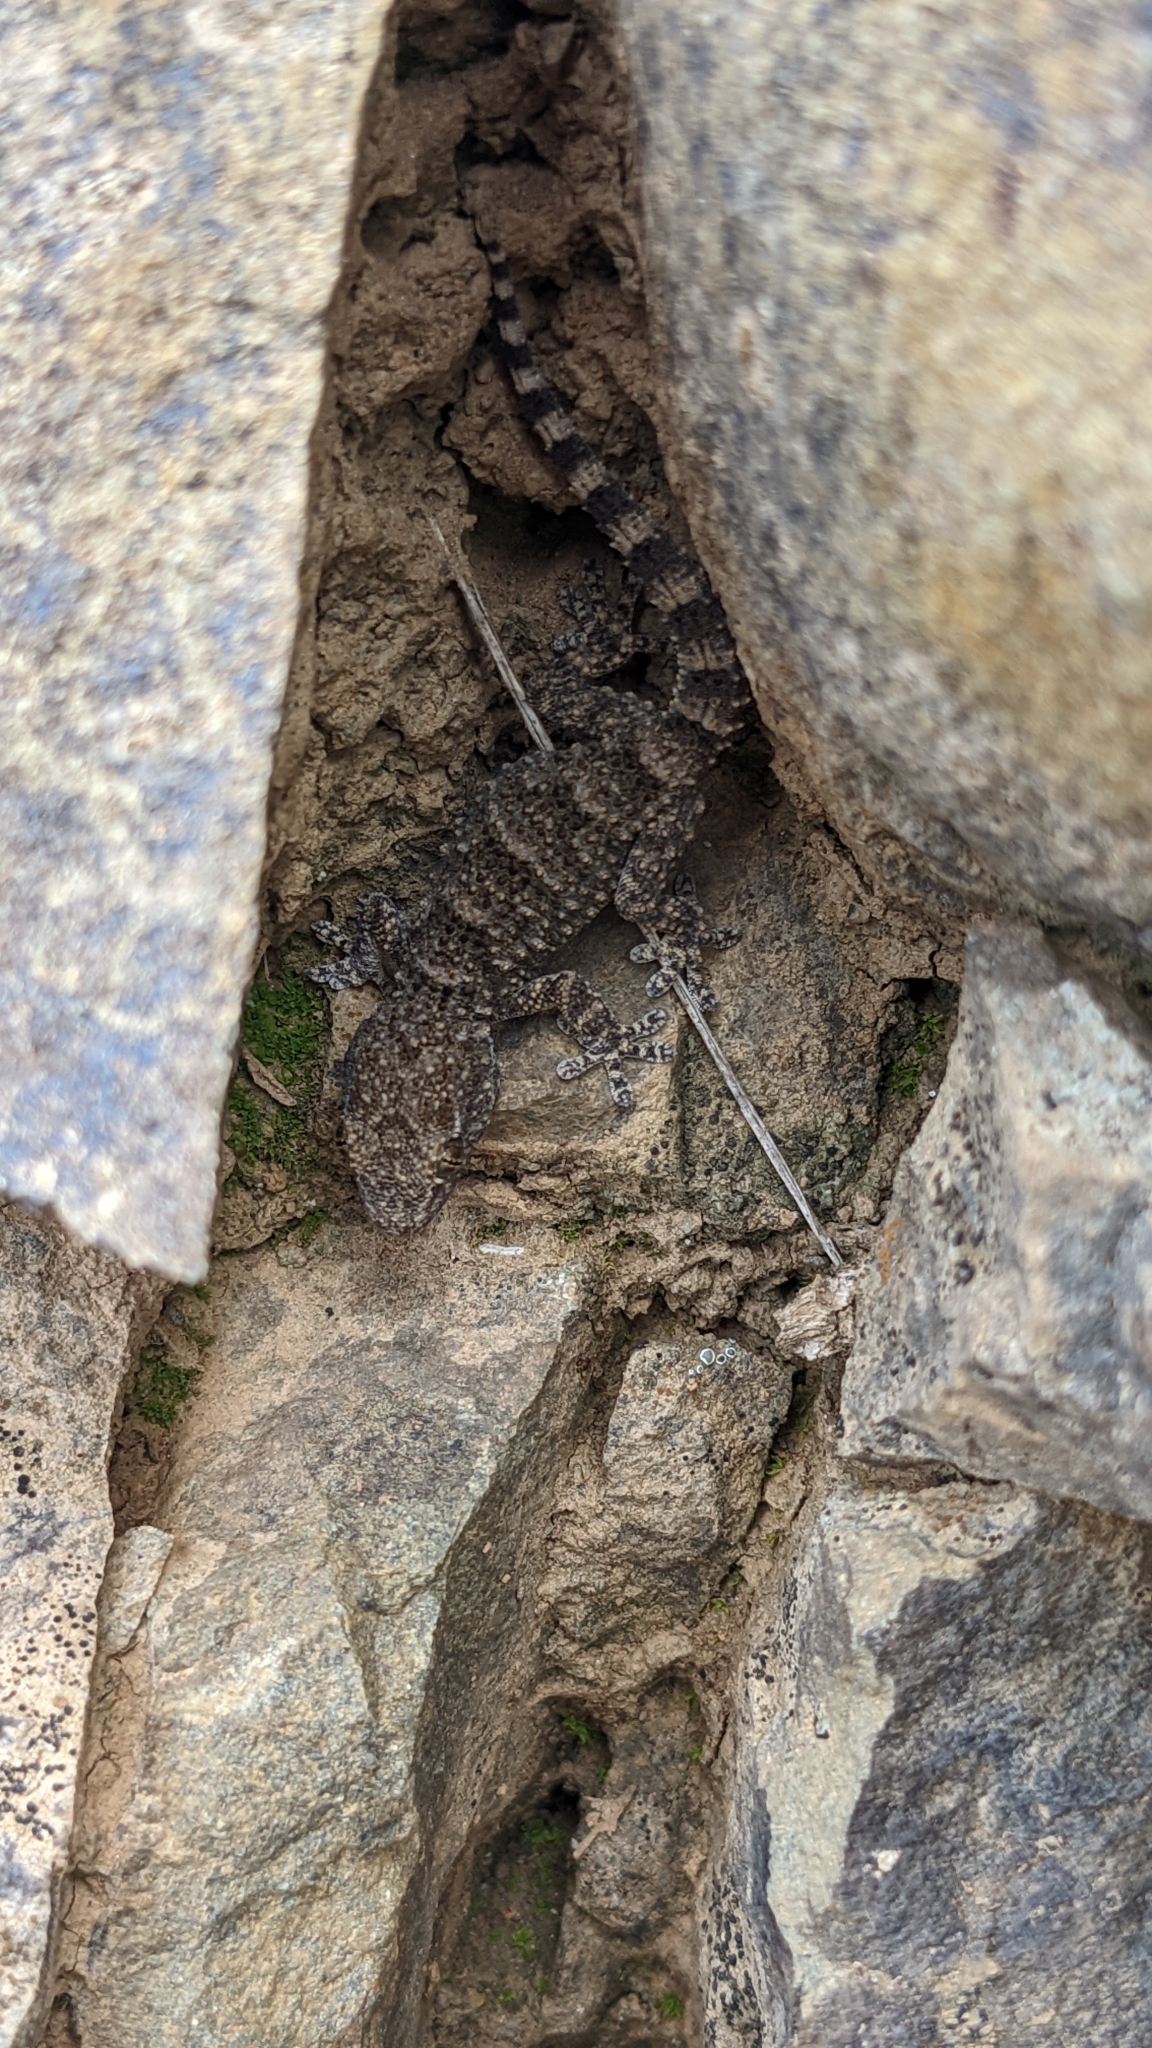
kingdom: Animalia
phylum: Chordata
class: Squamata
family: Phyllodactylidae
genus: Tarentola
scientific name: Tarentola mauritanica
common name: Moorish gecko
